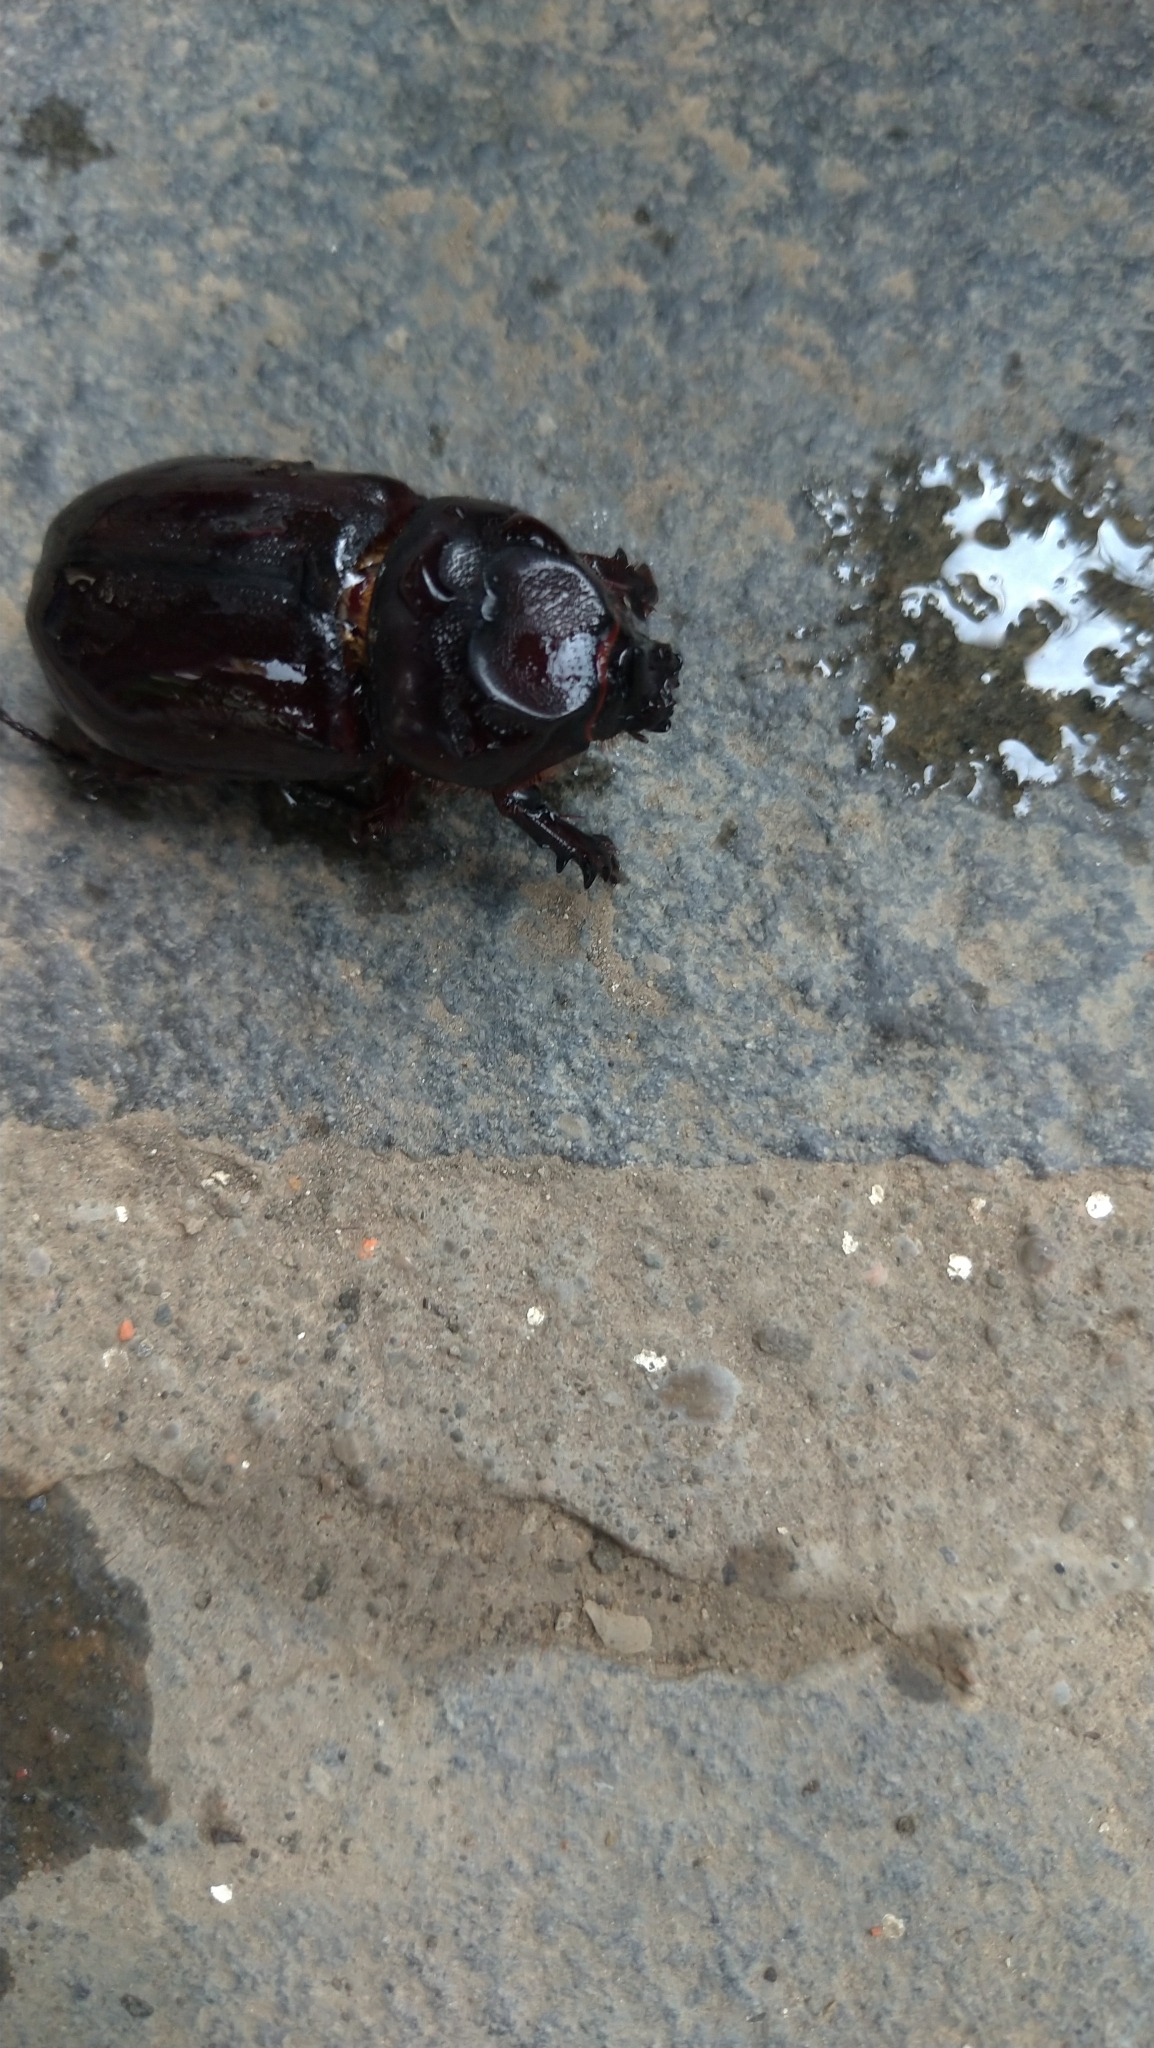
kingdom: Animalia
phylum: Arthropoda
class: Insecta
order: Coleoptera
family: Scarabaeidae
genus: Oryctes
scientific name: Oryctes rhinoceros
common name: Coconut rhinoceros beetle
